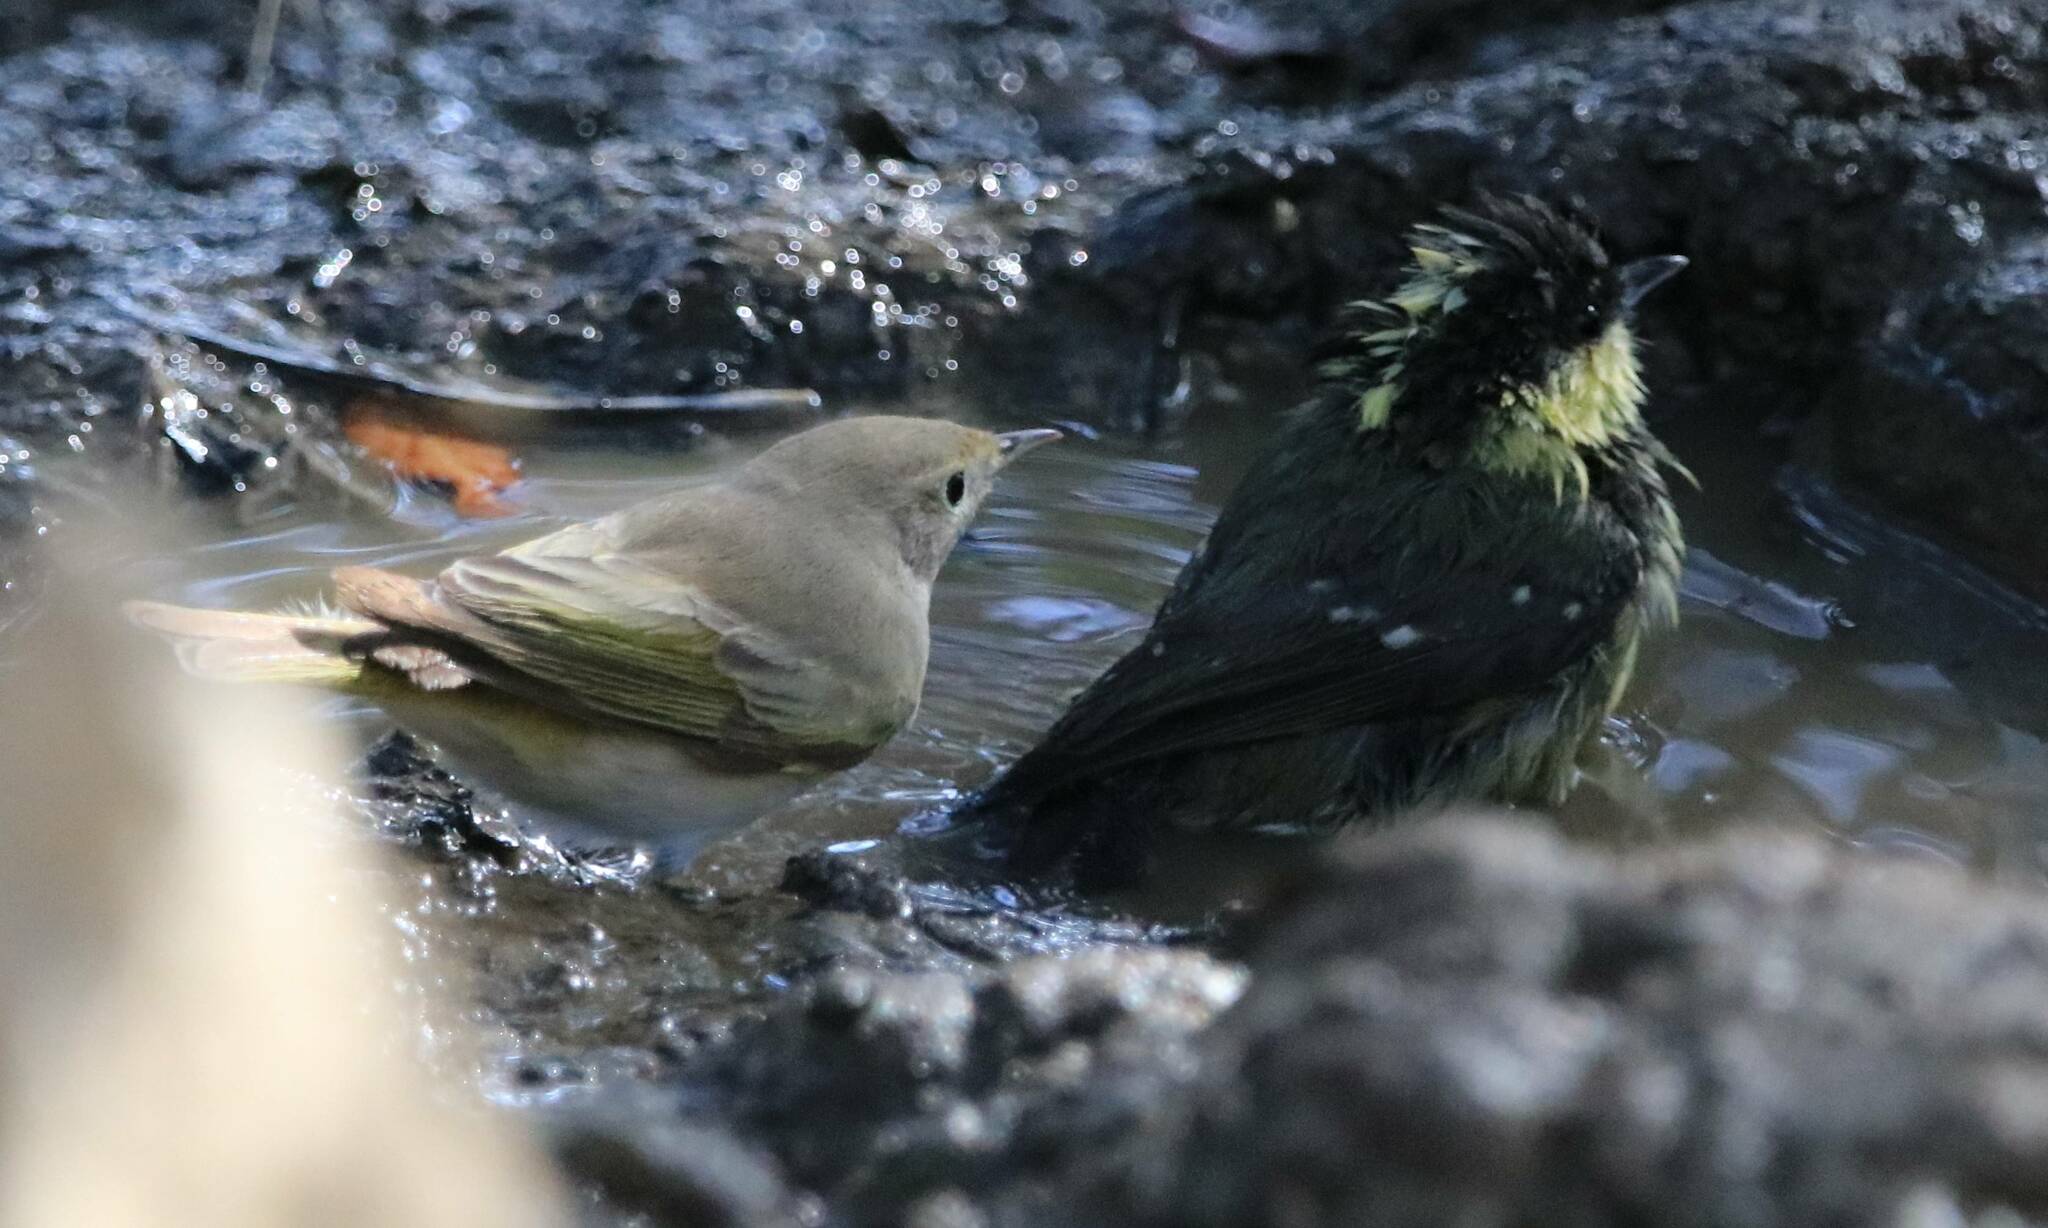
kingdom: Animalia
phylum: Chordata
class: Aves
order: Passeriformes
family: Phylloscopidae
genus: Phylloscopus
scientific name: Phylloscopus bonelli
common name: Western bonelli's warbler
